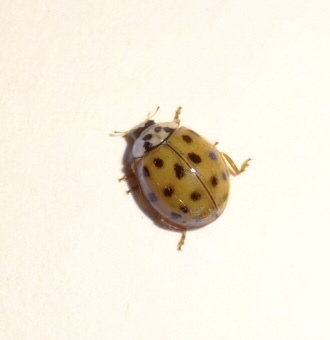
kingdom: Animalia
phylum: Arthropoda
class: Insecta
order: Coleoptera
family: Coccinellidae
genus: Harmonia
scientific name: Harmonia axyridis
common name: Harlequin ladybird
